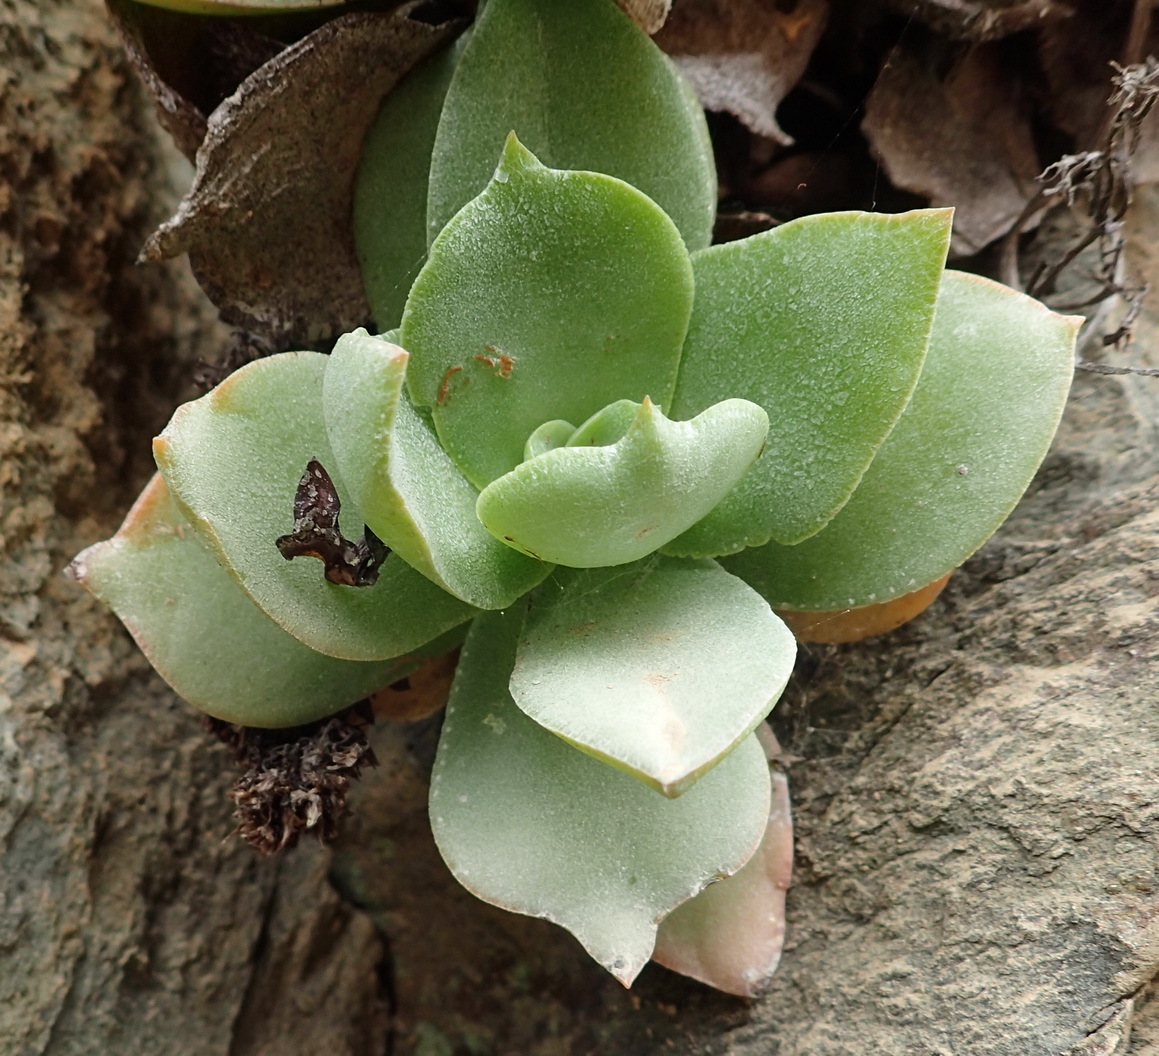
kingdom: Plantae
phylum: Tracheophyta
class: Magnoliopsida
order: Saxifragales
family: Crassulaceae
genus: Crassula
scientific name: Crassula lactea
